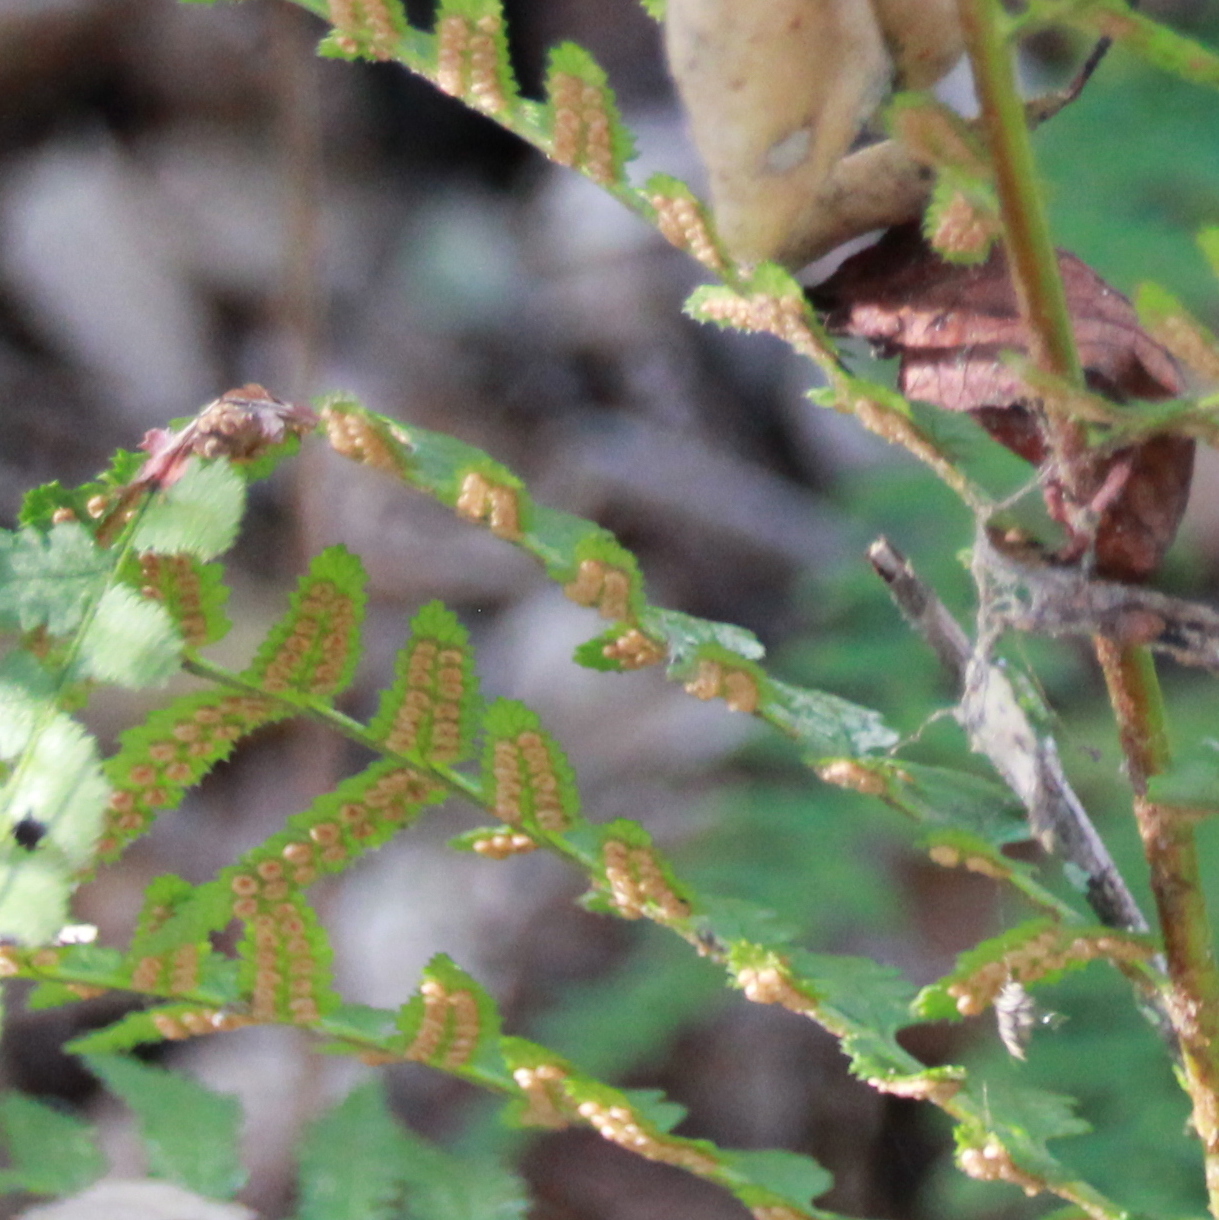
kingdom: Plantae
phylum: Tracheophyta
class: Polypodiopsida
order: Polypodiales
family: Dryopteridaceae
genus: Dryopteris
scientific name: Dryopteris arguta
